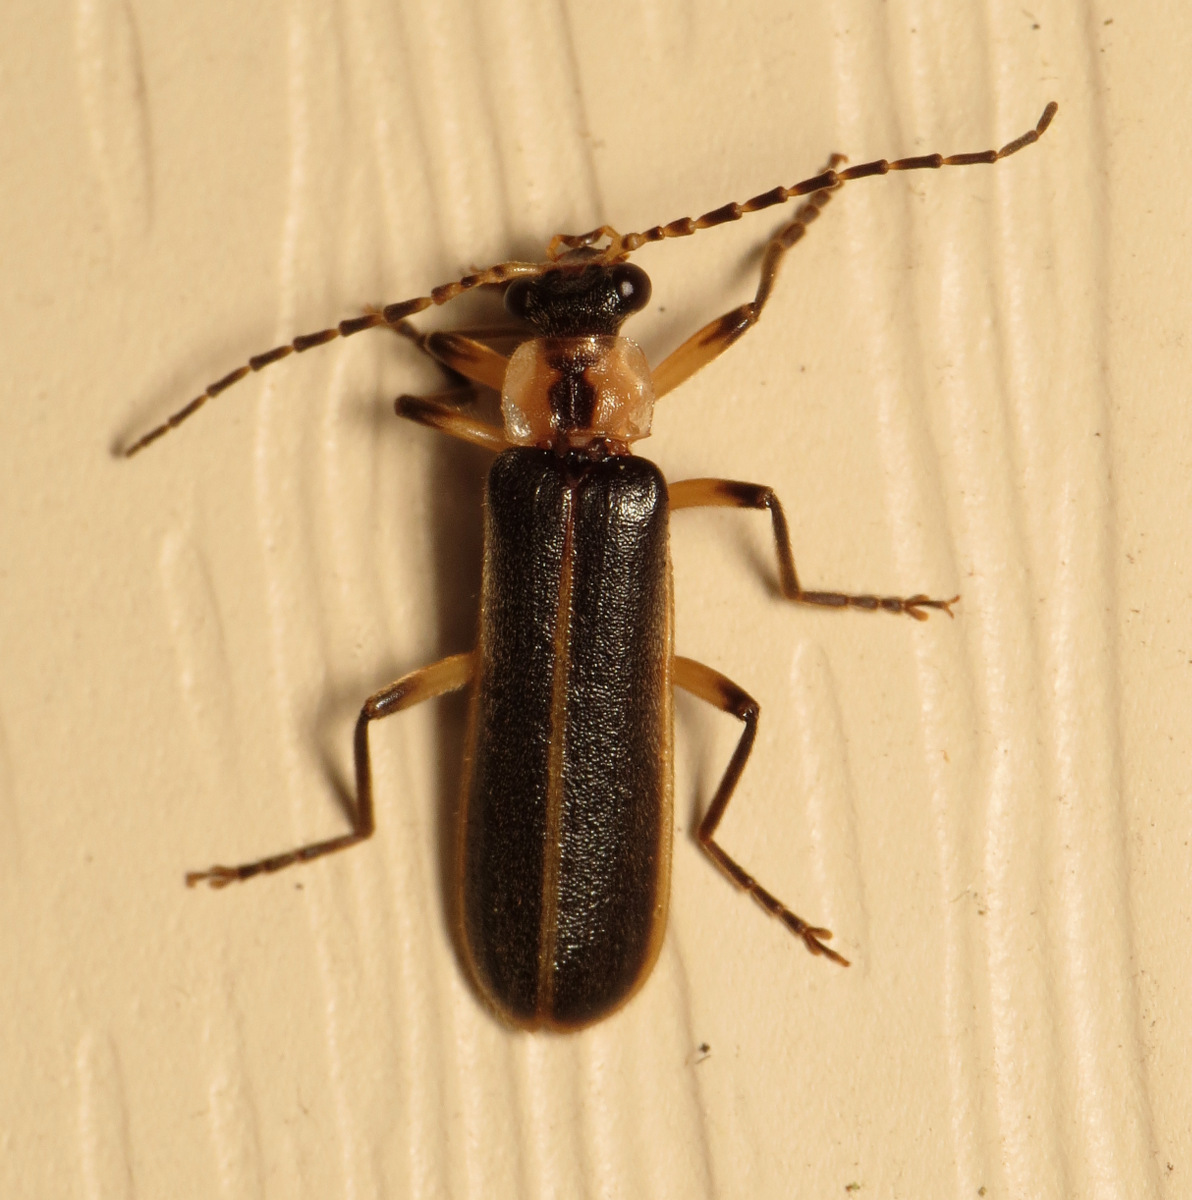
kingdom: Animalia
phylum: Arthropoda
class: Insecta
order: Coleoptera
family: Cantharidae
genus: Podabrus
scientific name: Podabrus basilaris
